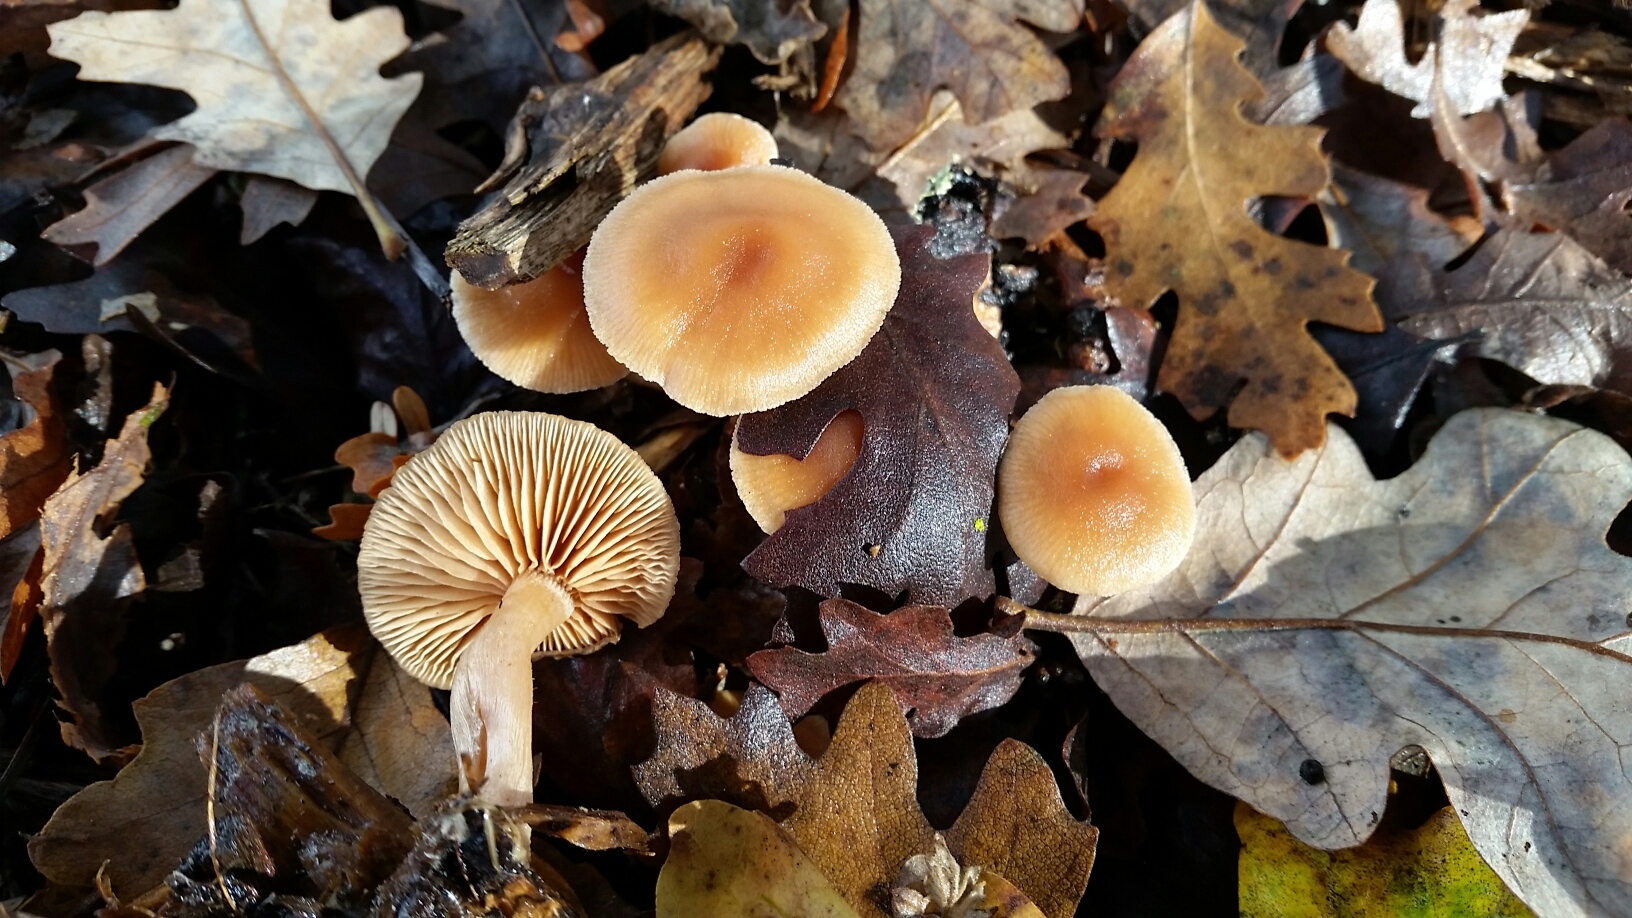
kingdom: Fungi
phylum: Basidiomycota
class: Agaricomycetes
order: Agaricales
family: Tubariaceae
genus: Tubaria
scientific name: Tubaria furfuracea
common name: Scurfy twiglet
